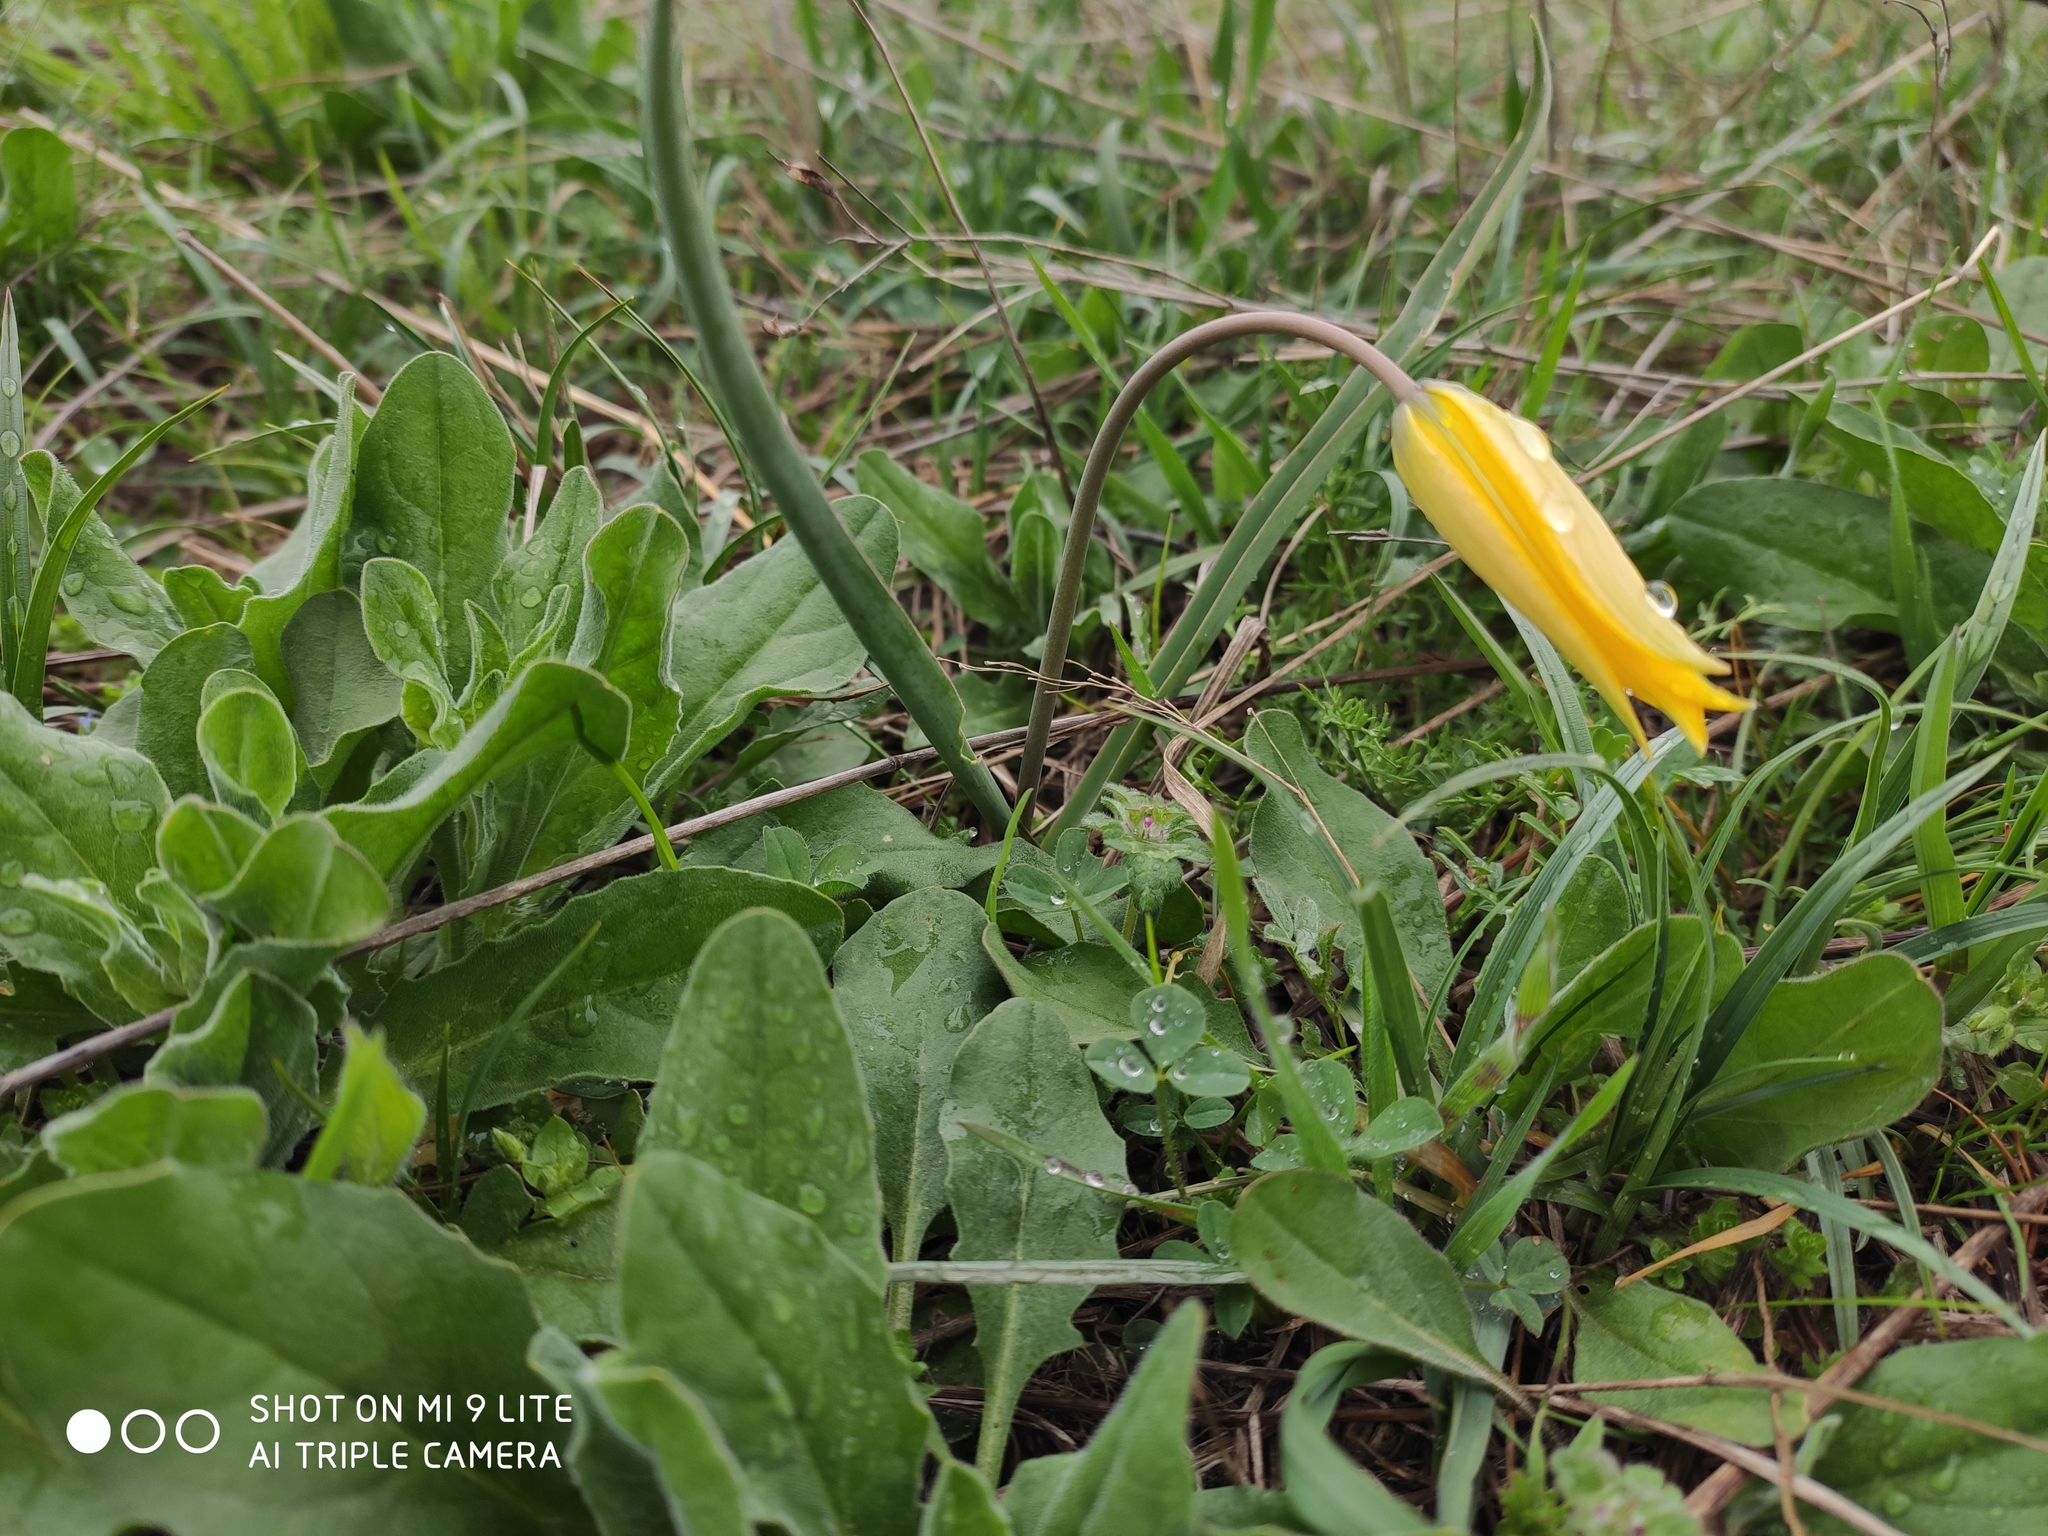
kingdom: Plantae
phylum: Tracheophyta
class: Liliopsida
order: Liliales
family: Liliaceae
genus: Tulipa
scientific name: Tulipa sylvestris
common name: Wild tulip
